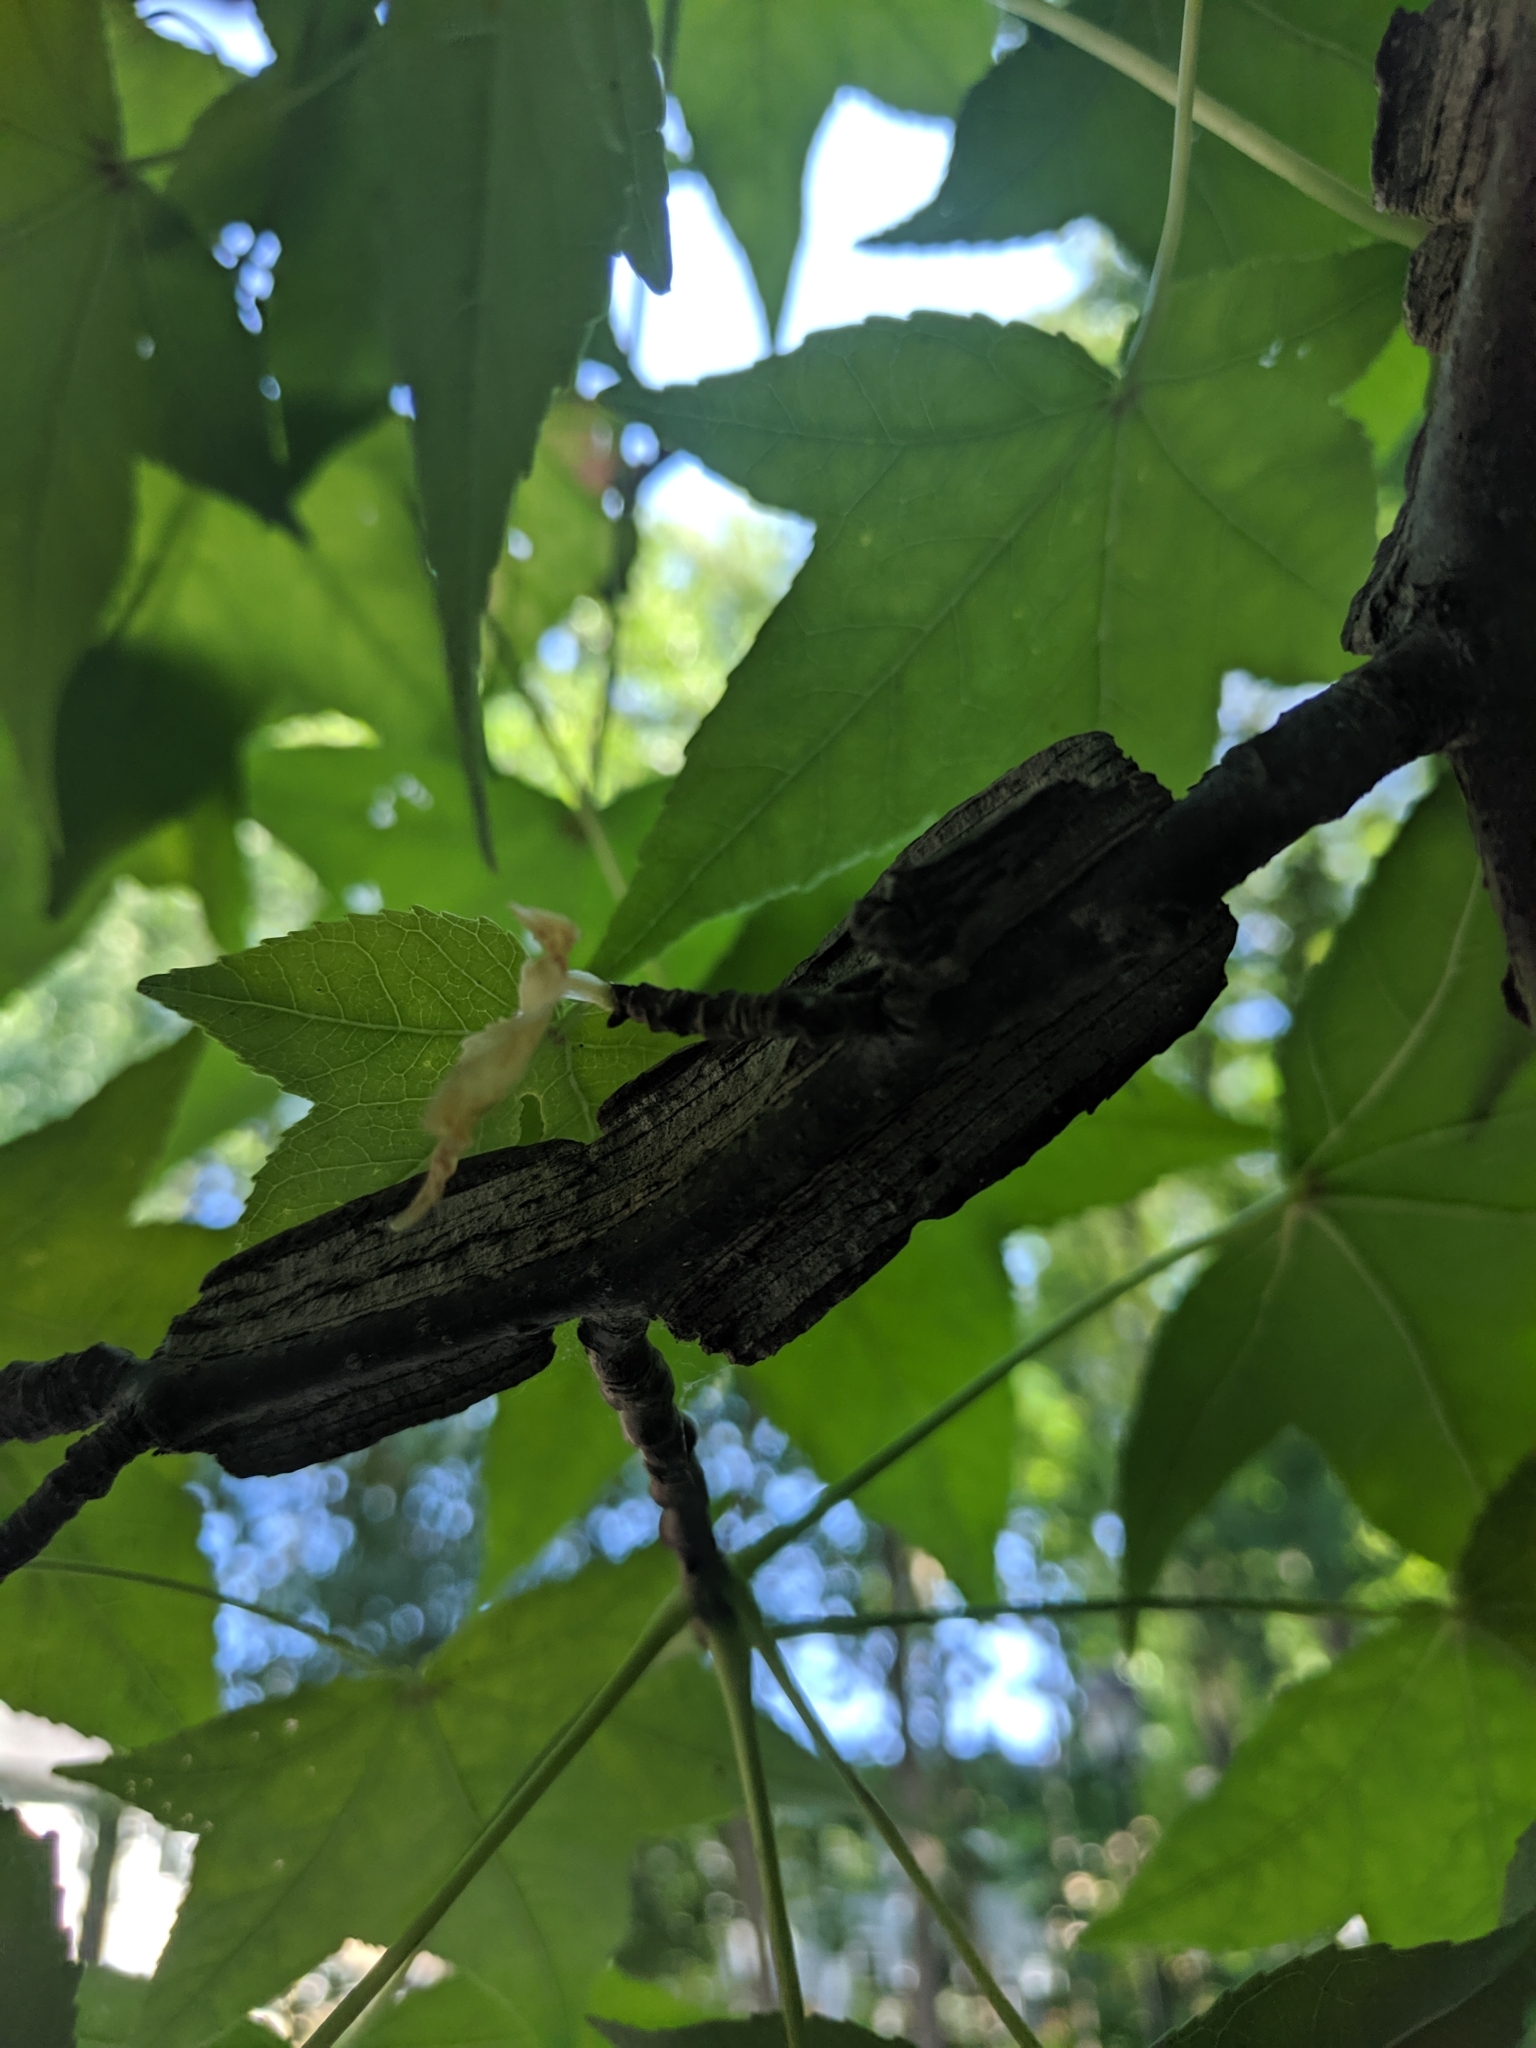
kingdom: Plantae
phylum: Tracheophyta
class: Magnoliopsida
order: Saxifragales
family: Altingiaceae
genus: Liquidambar
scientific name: Liquidambar styraciflua
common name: Sweet gum
